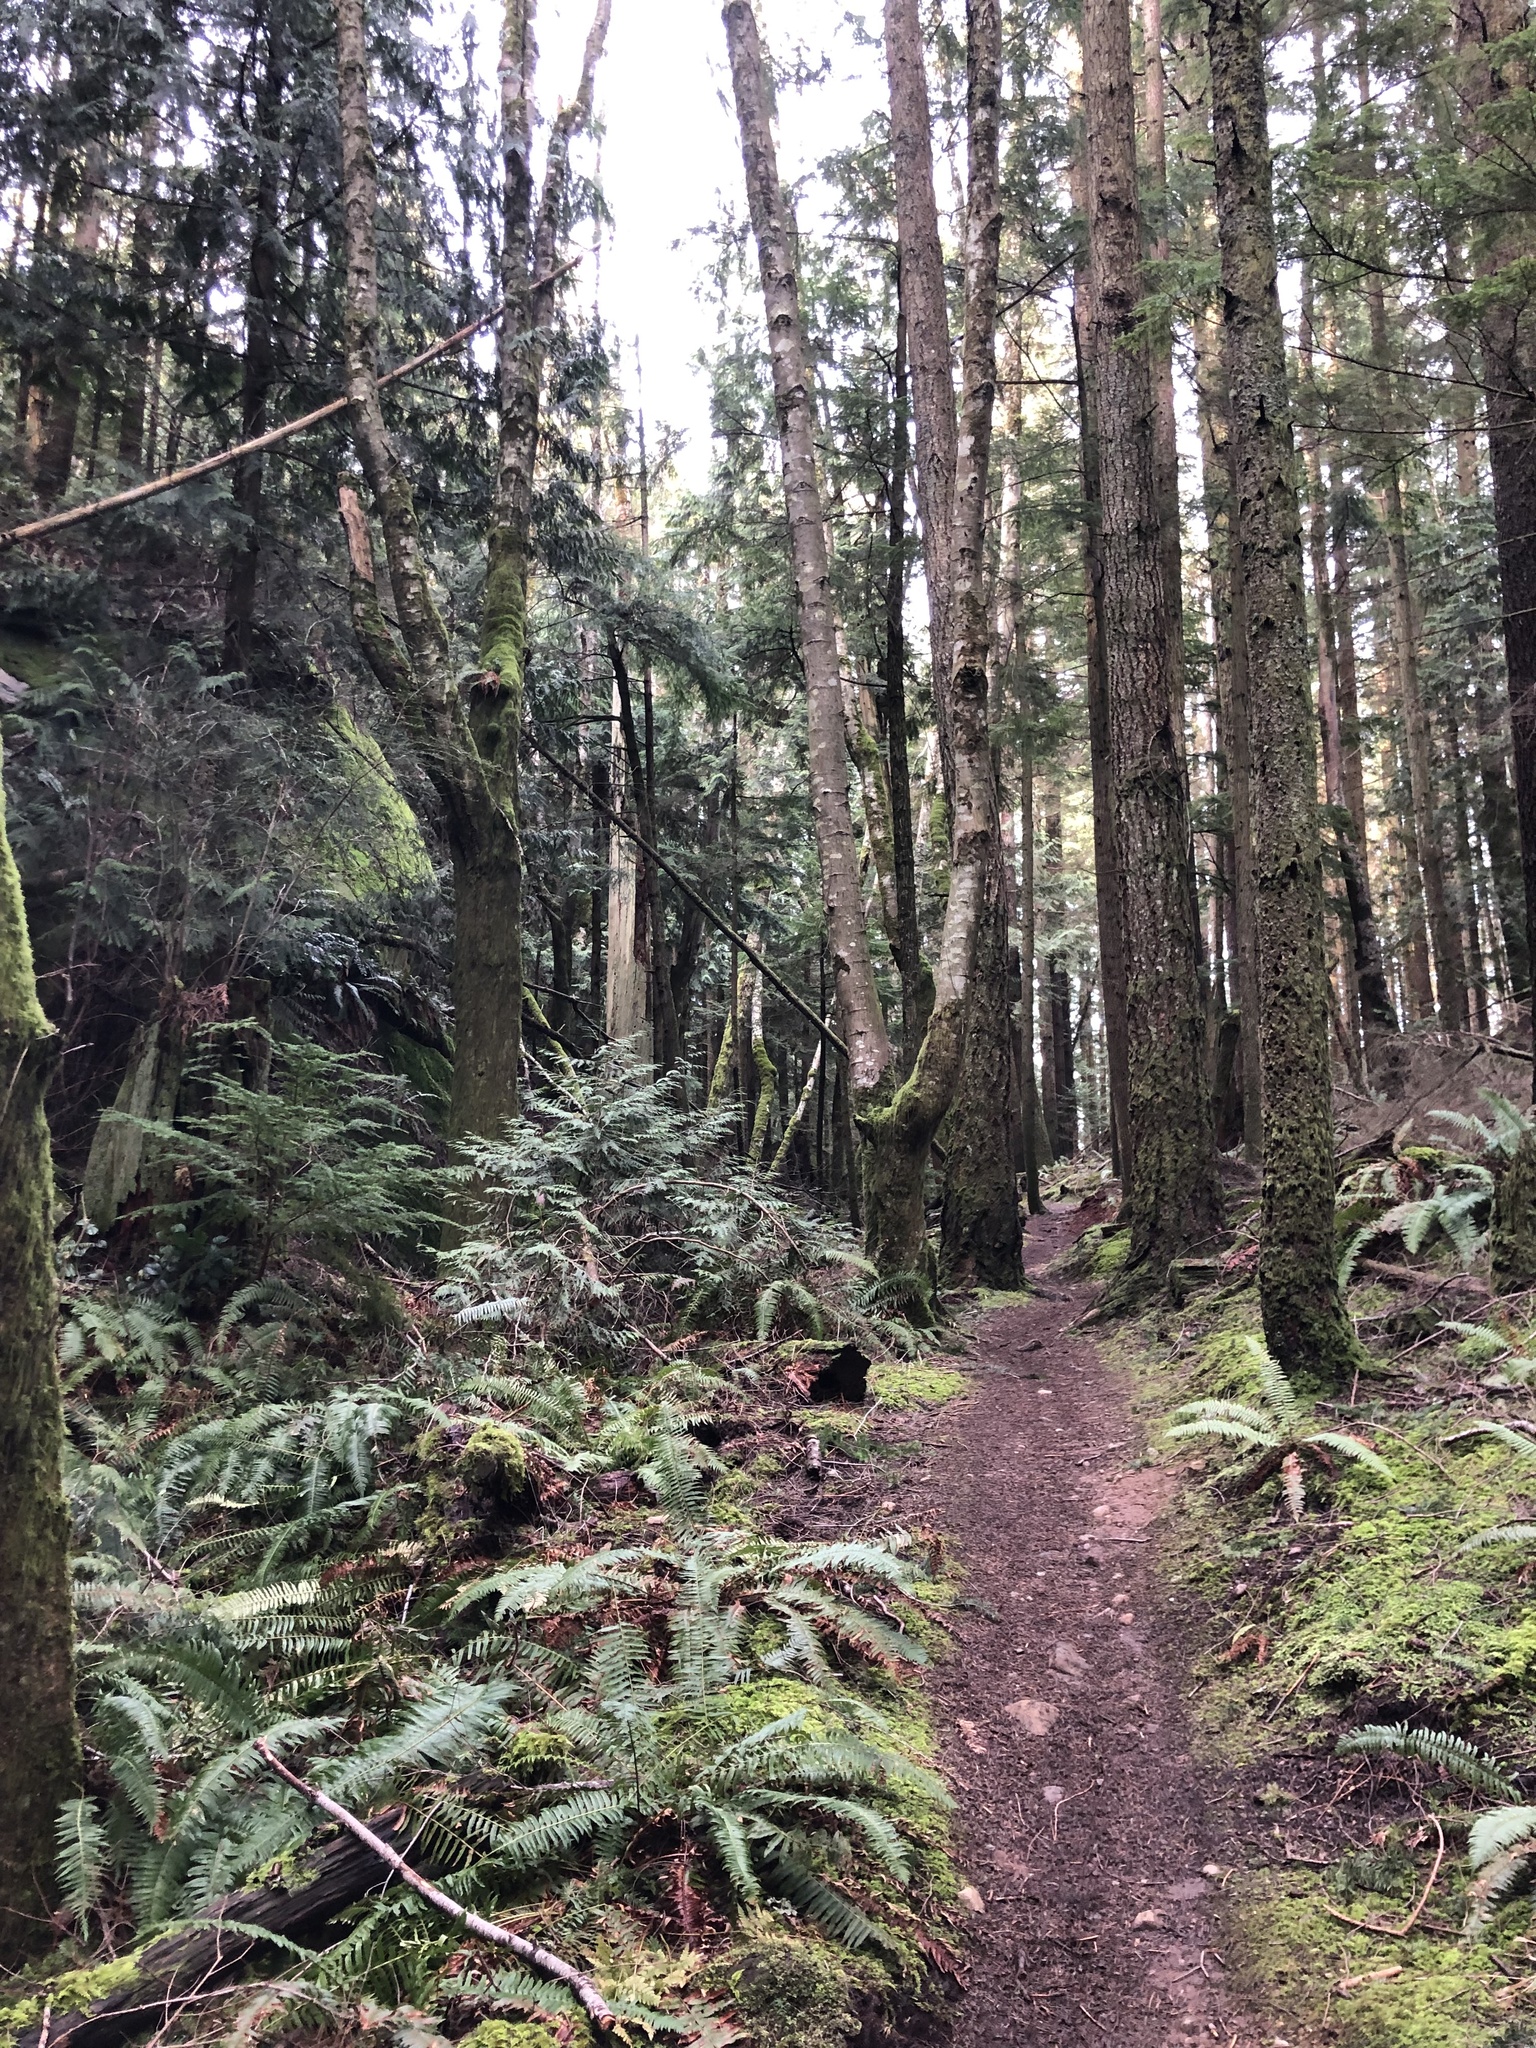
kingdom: Plantae
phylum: Tracheophyta
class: Pinopsida
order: Pinales
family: Cupressaceae
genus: Thuja
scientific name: Thuja plicata
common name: Western red-cedar
